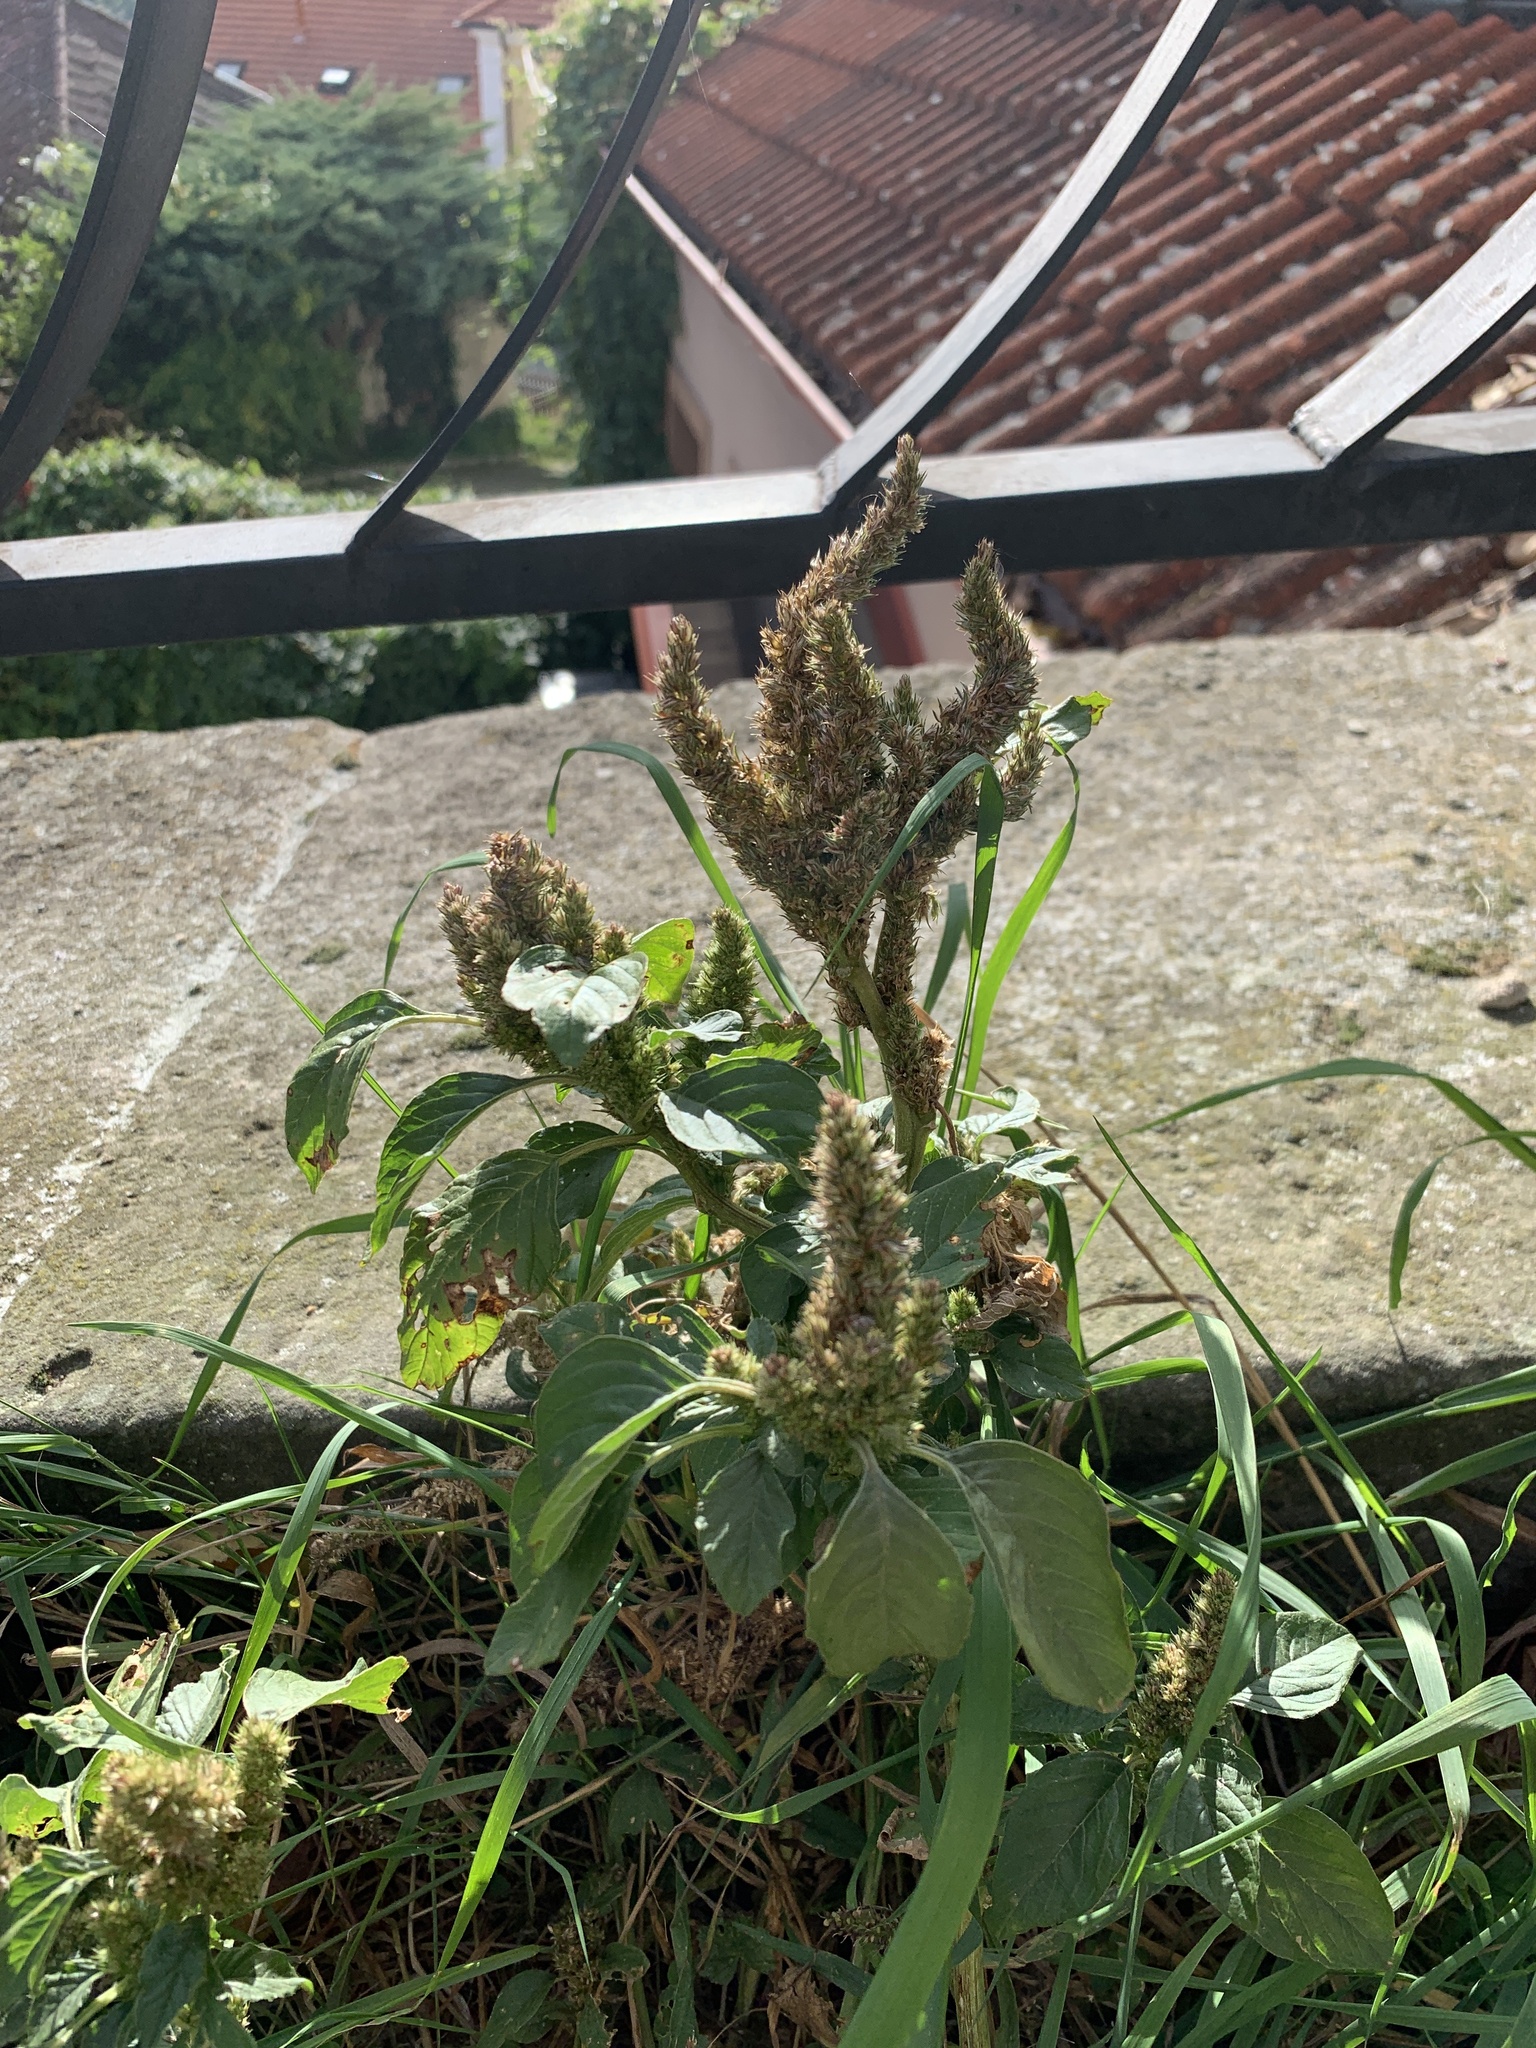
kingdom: Plantae
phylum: Tracheophyta
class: Magnoliopsida
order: Caryophyllales
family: Amaranthaceae
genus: Amaranthus
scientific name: Amaranthus retroflexus
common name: Redroot amaranth
